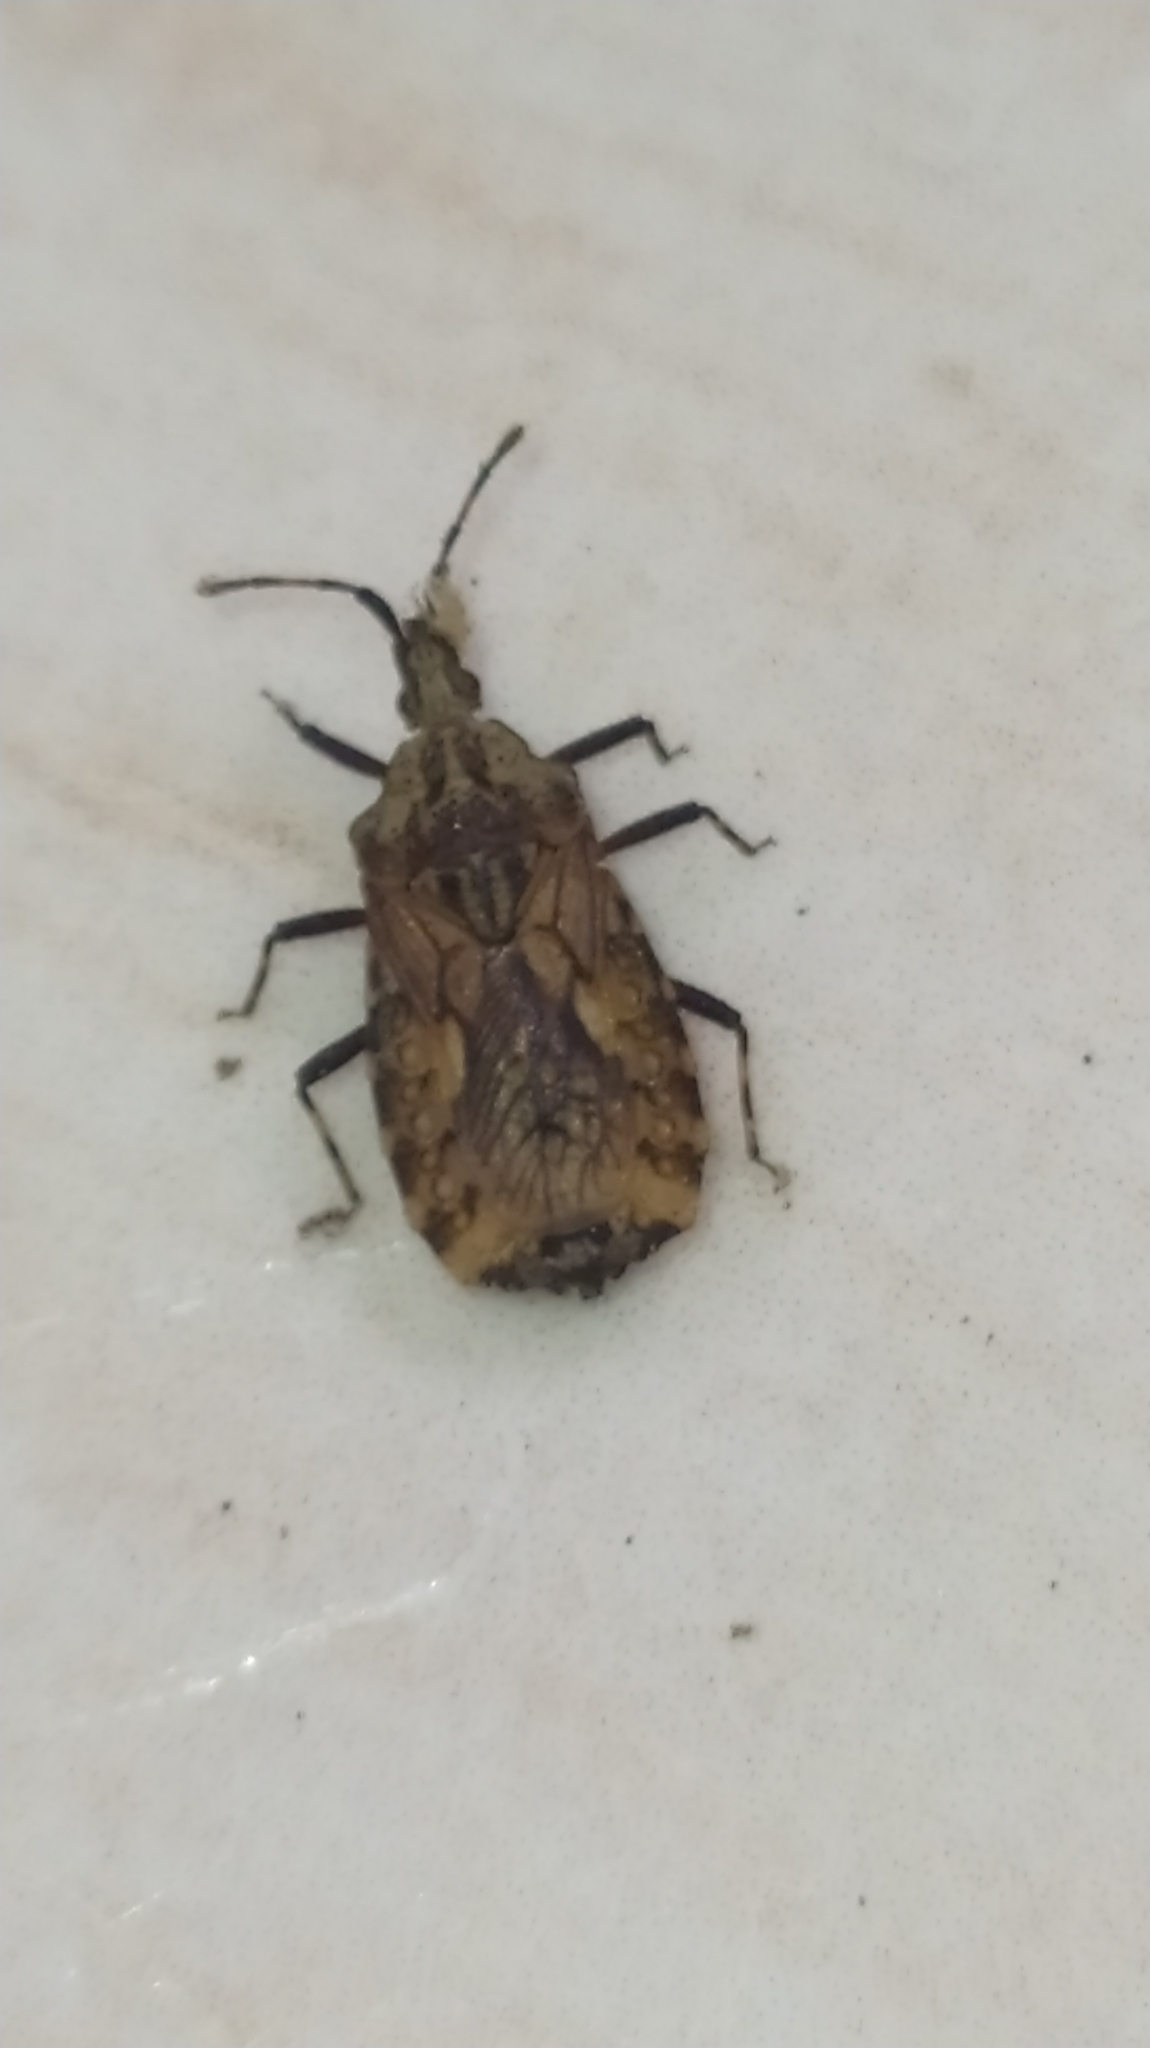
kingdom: Animalia
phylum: Arthropoda
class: Insecta
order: Hemiptera
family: Aradidae
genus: Hesus
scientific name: Hesus cordatus
